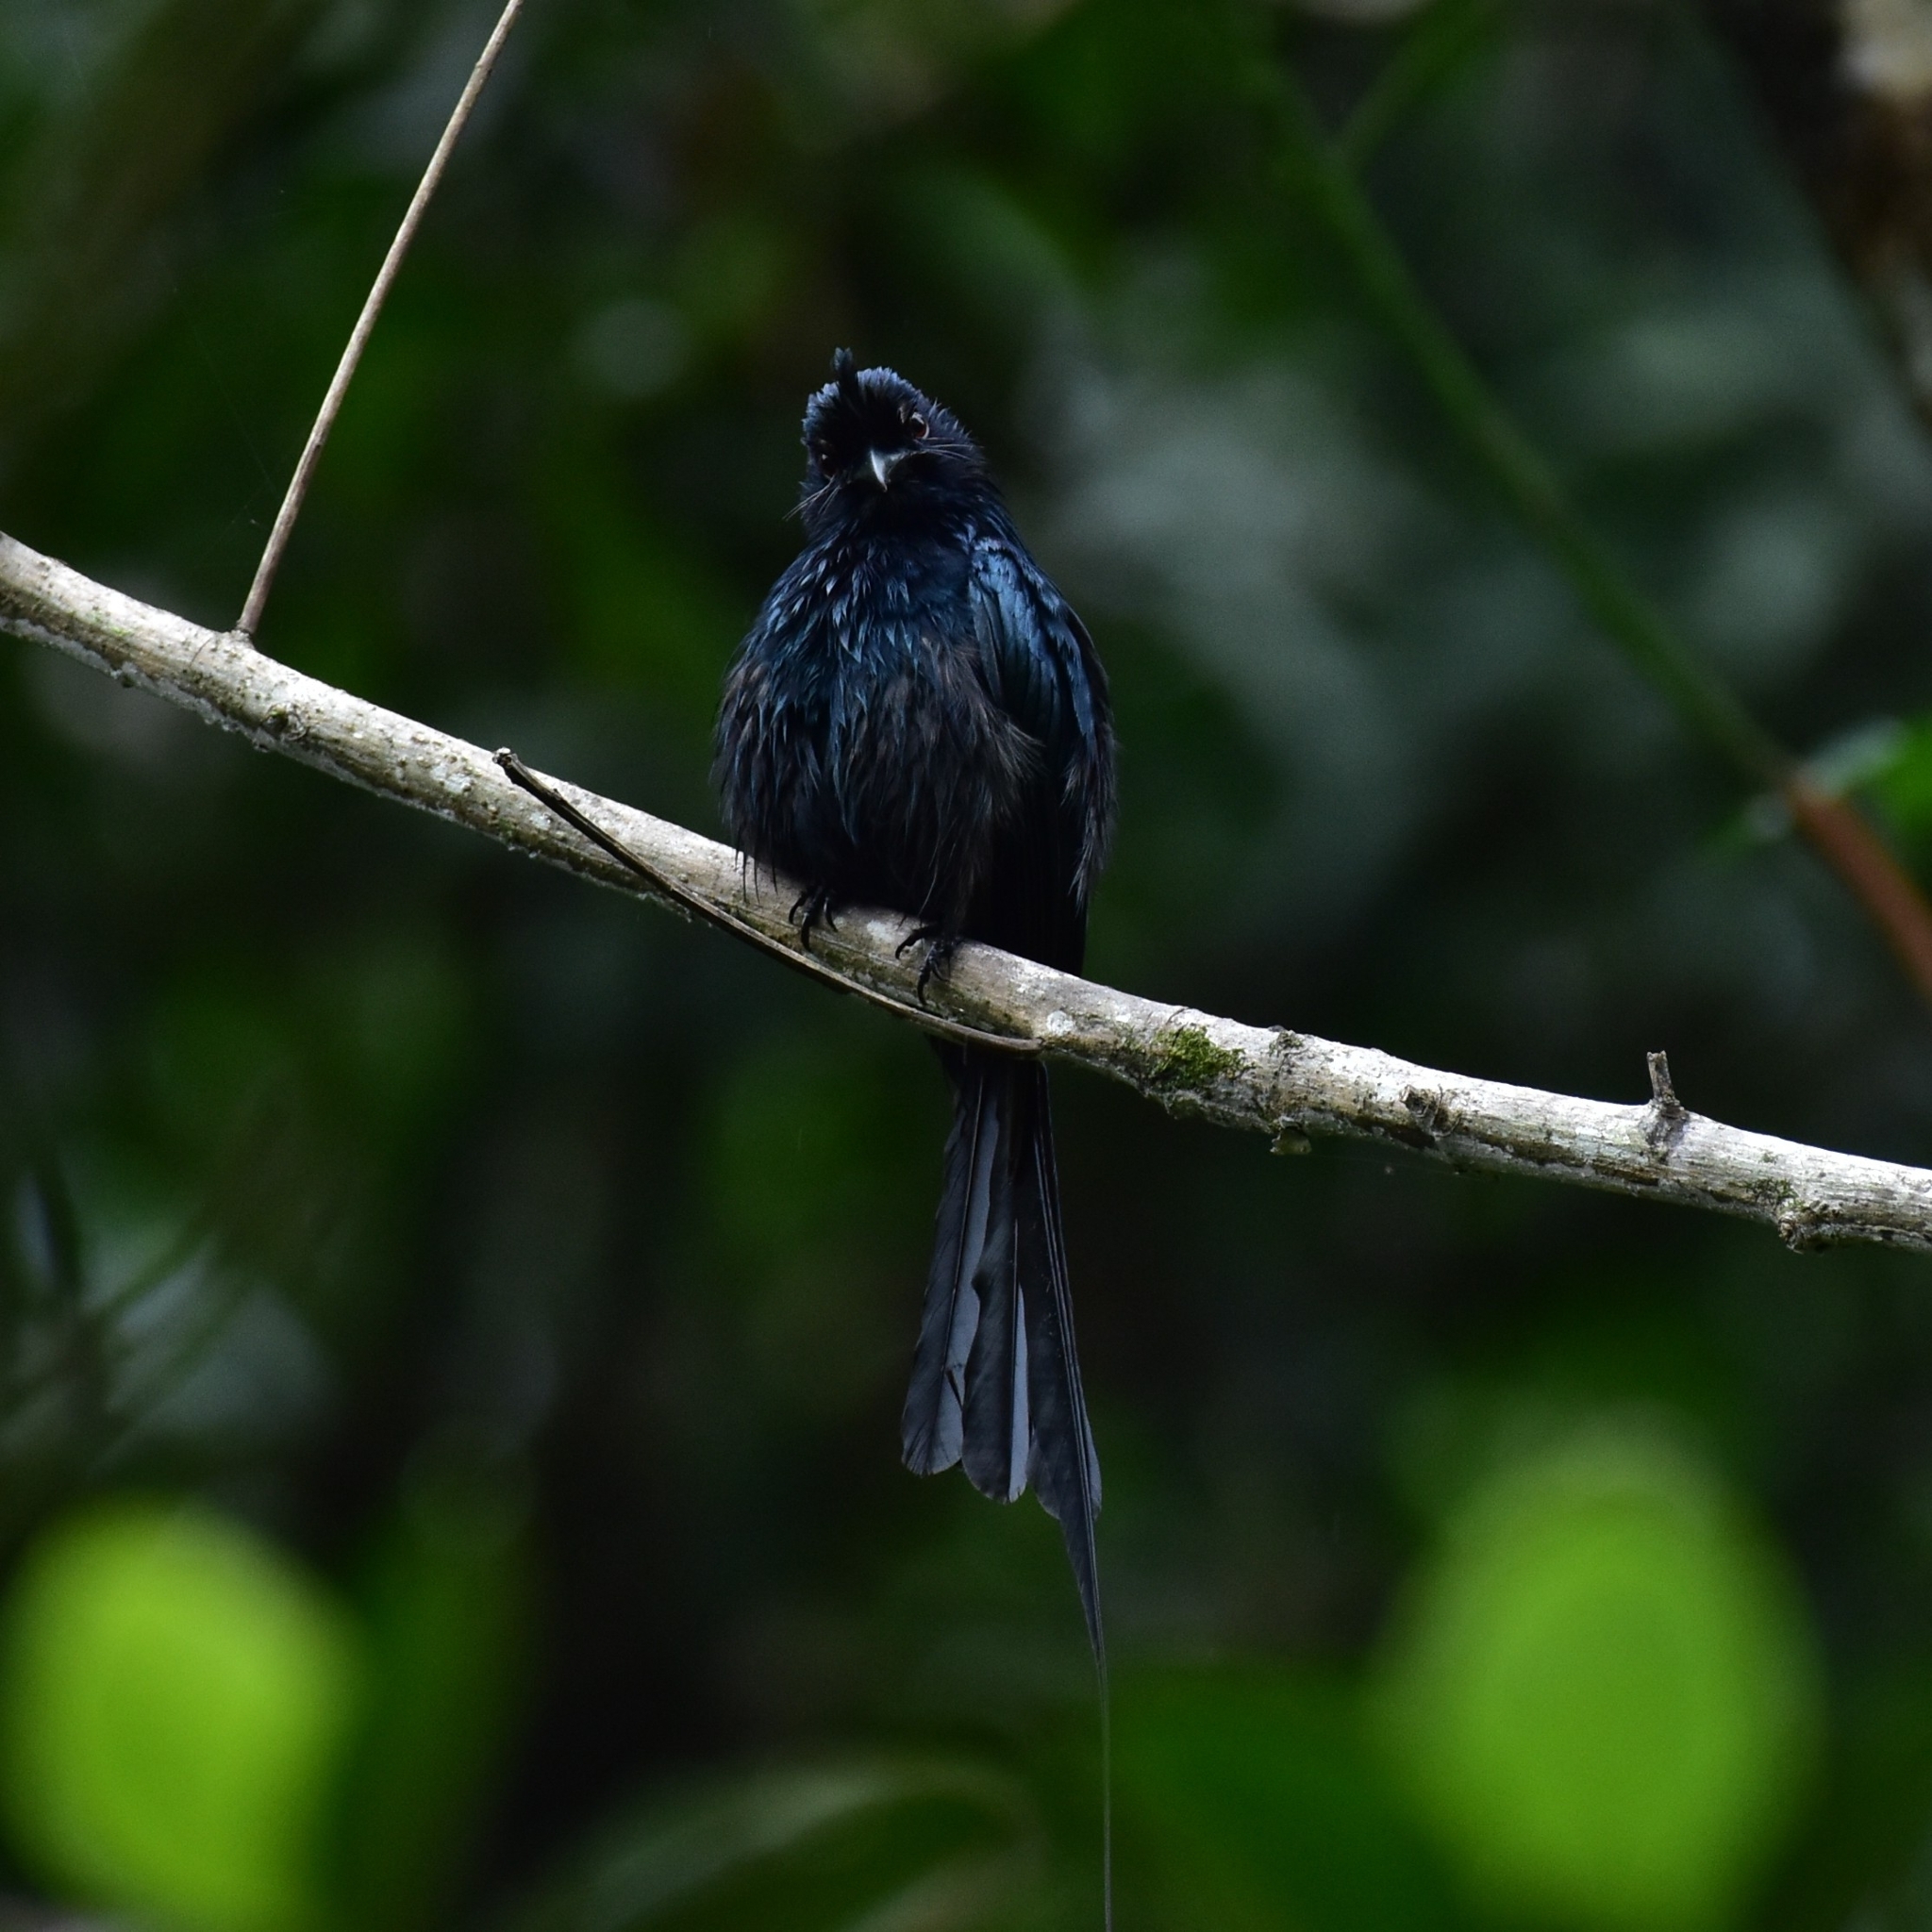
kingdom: Animalia
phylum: Chordata
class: Aves
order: Passeriformes
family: Dicruridae
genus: Dicrurus
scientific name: Dicrurus paradiseus
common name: Greater racket-tailed drongo
